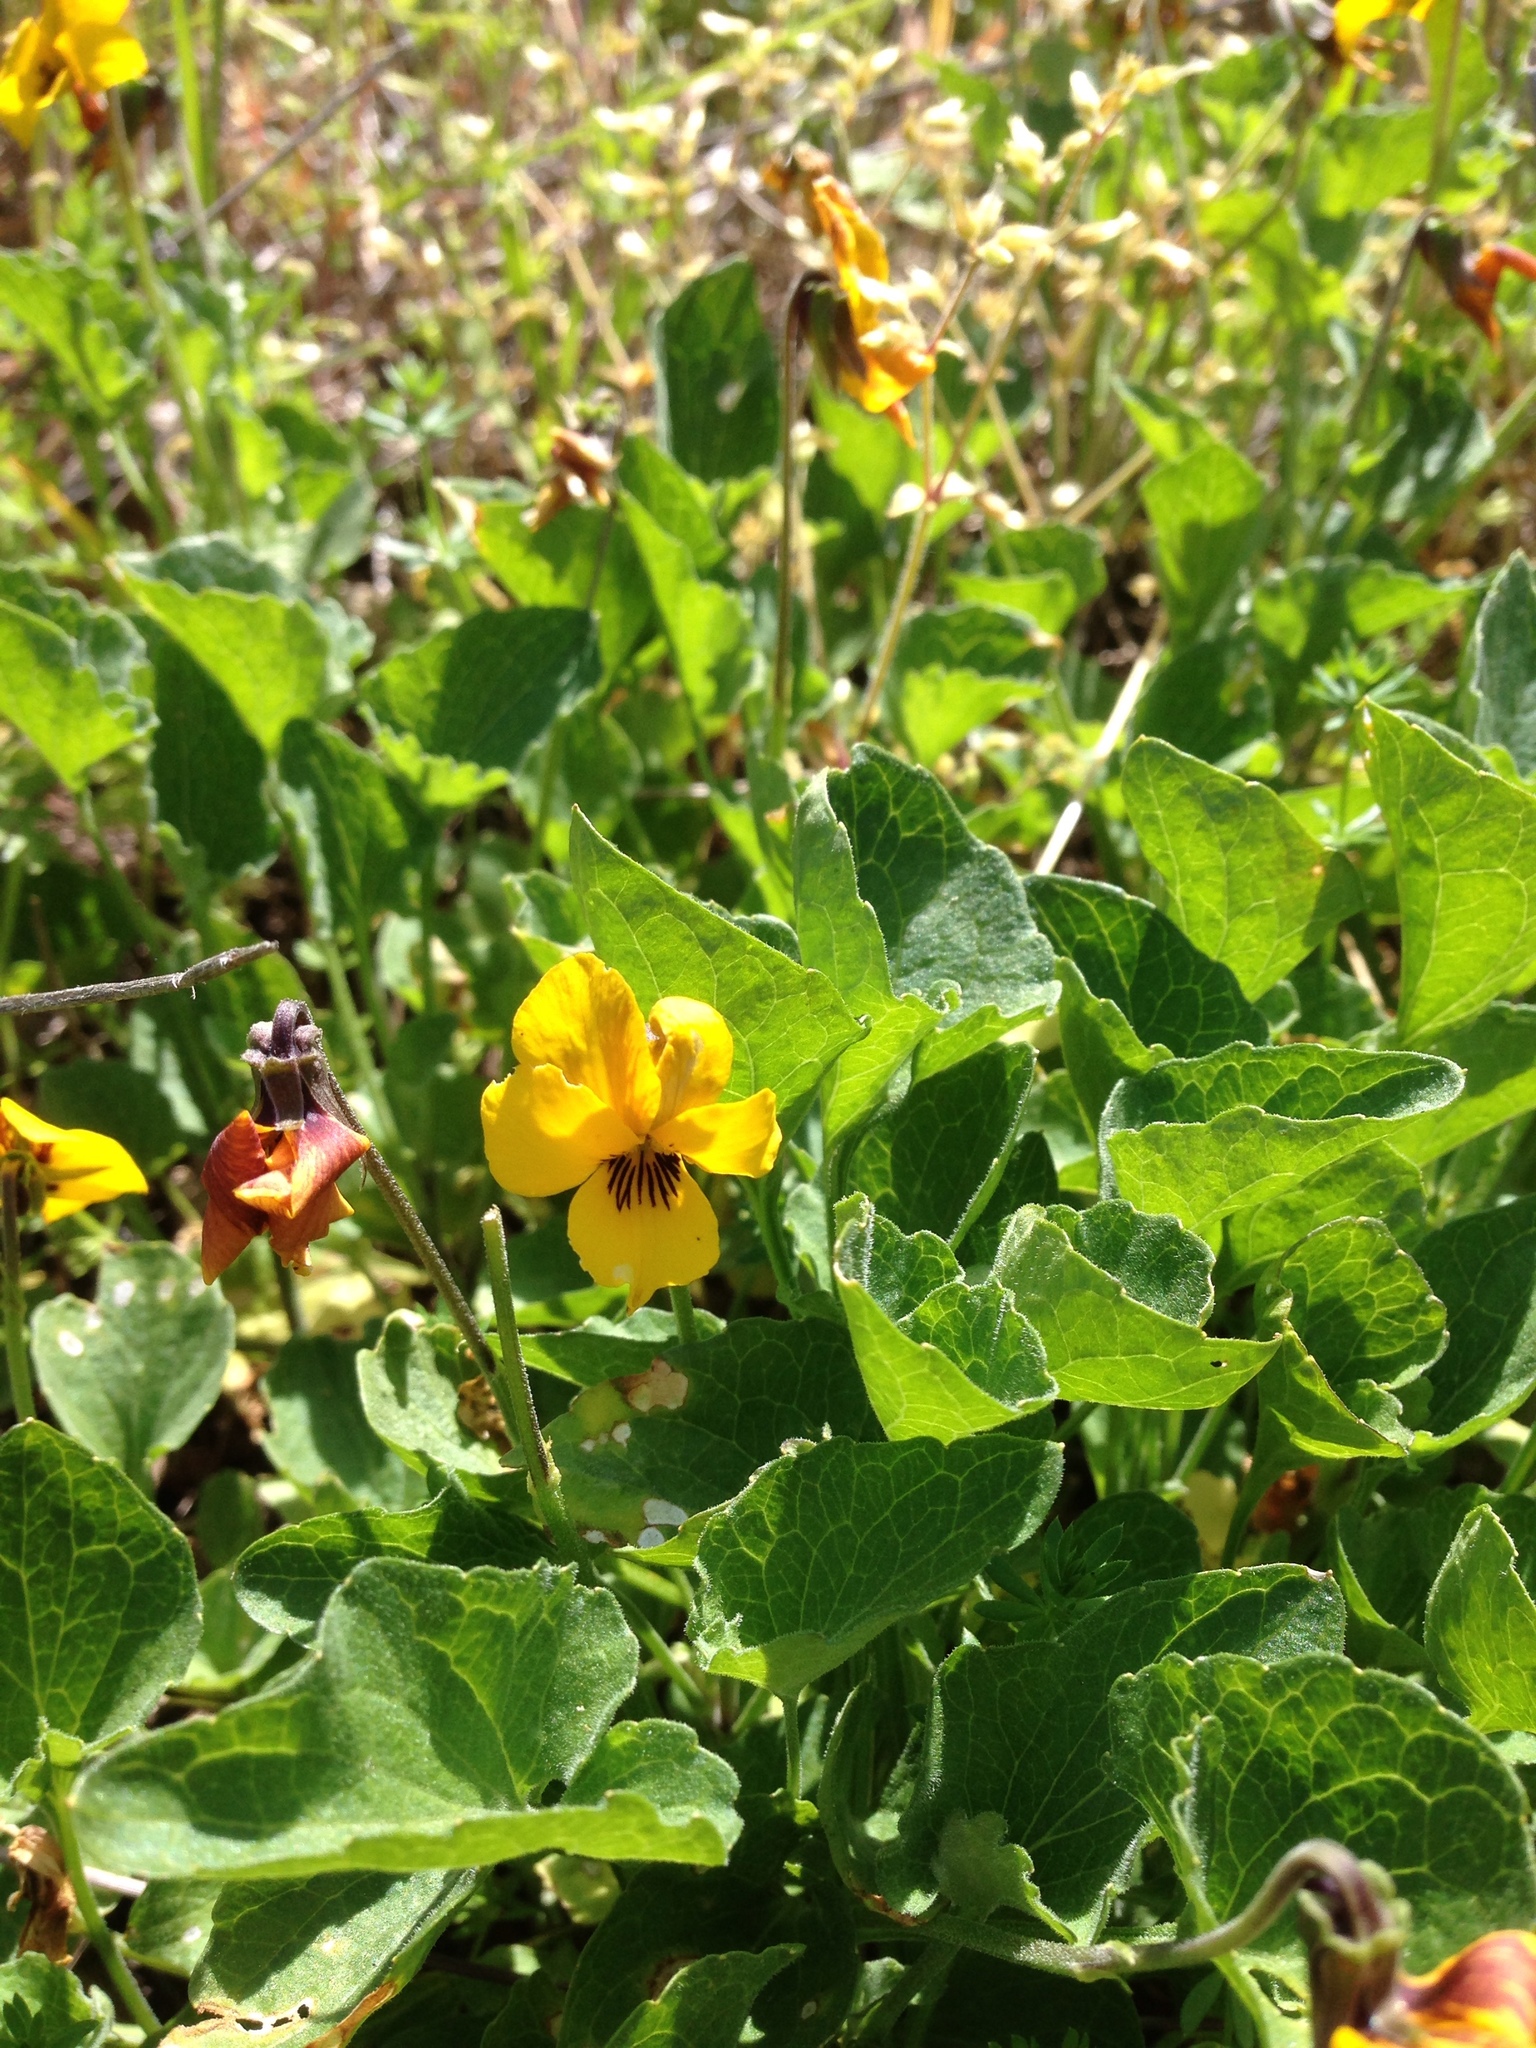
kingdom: Plantae
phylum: Tracheophyta
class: Magnoliopsida
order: Malpighiales
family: Violaceae
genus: Viola
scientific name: Viola pedunculata
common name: California golden violet
